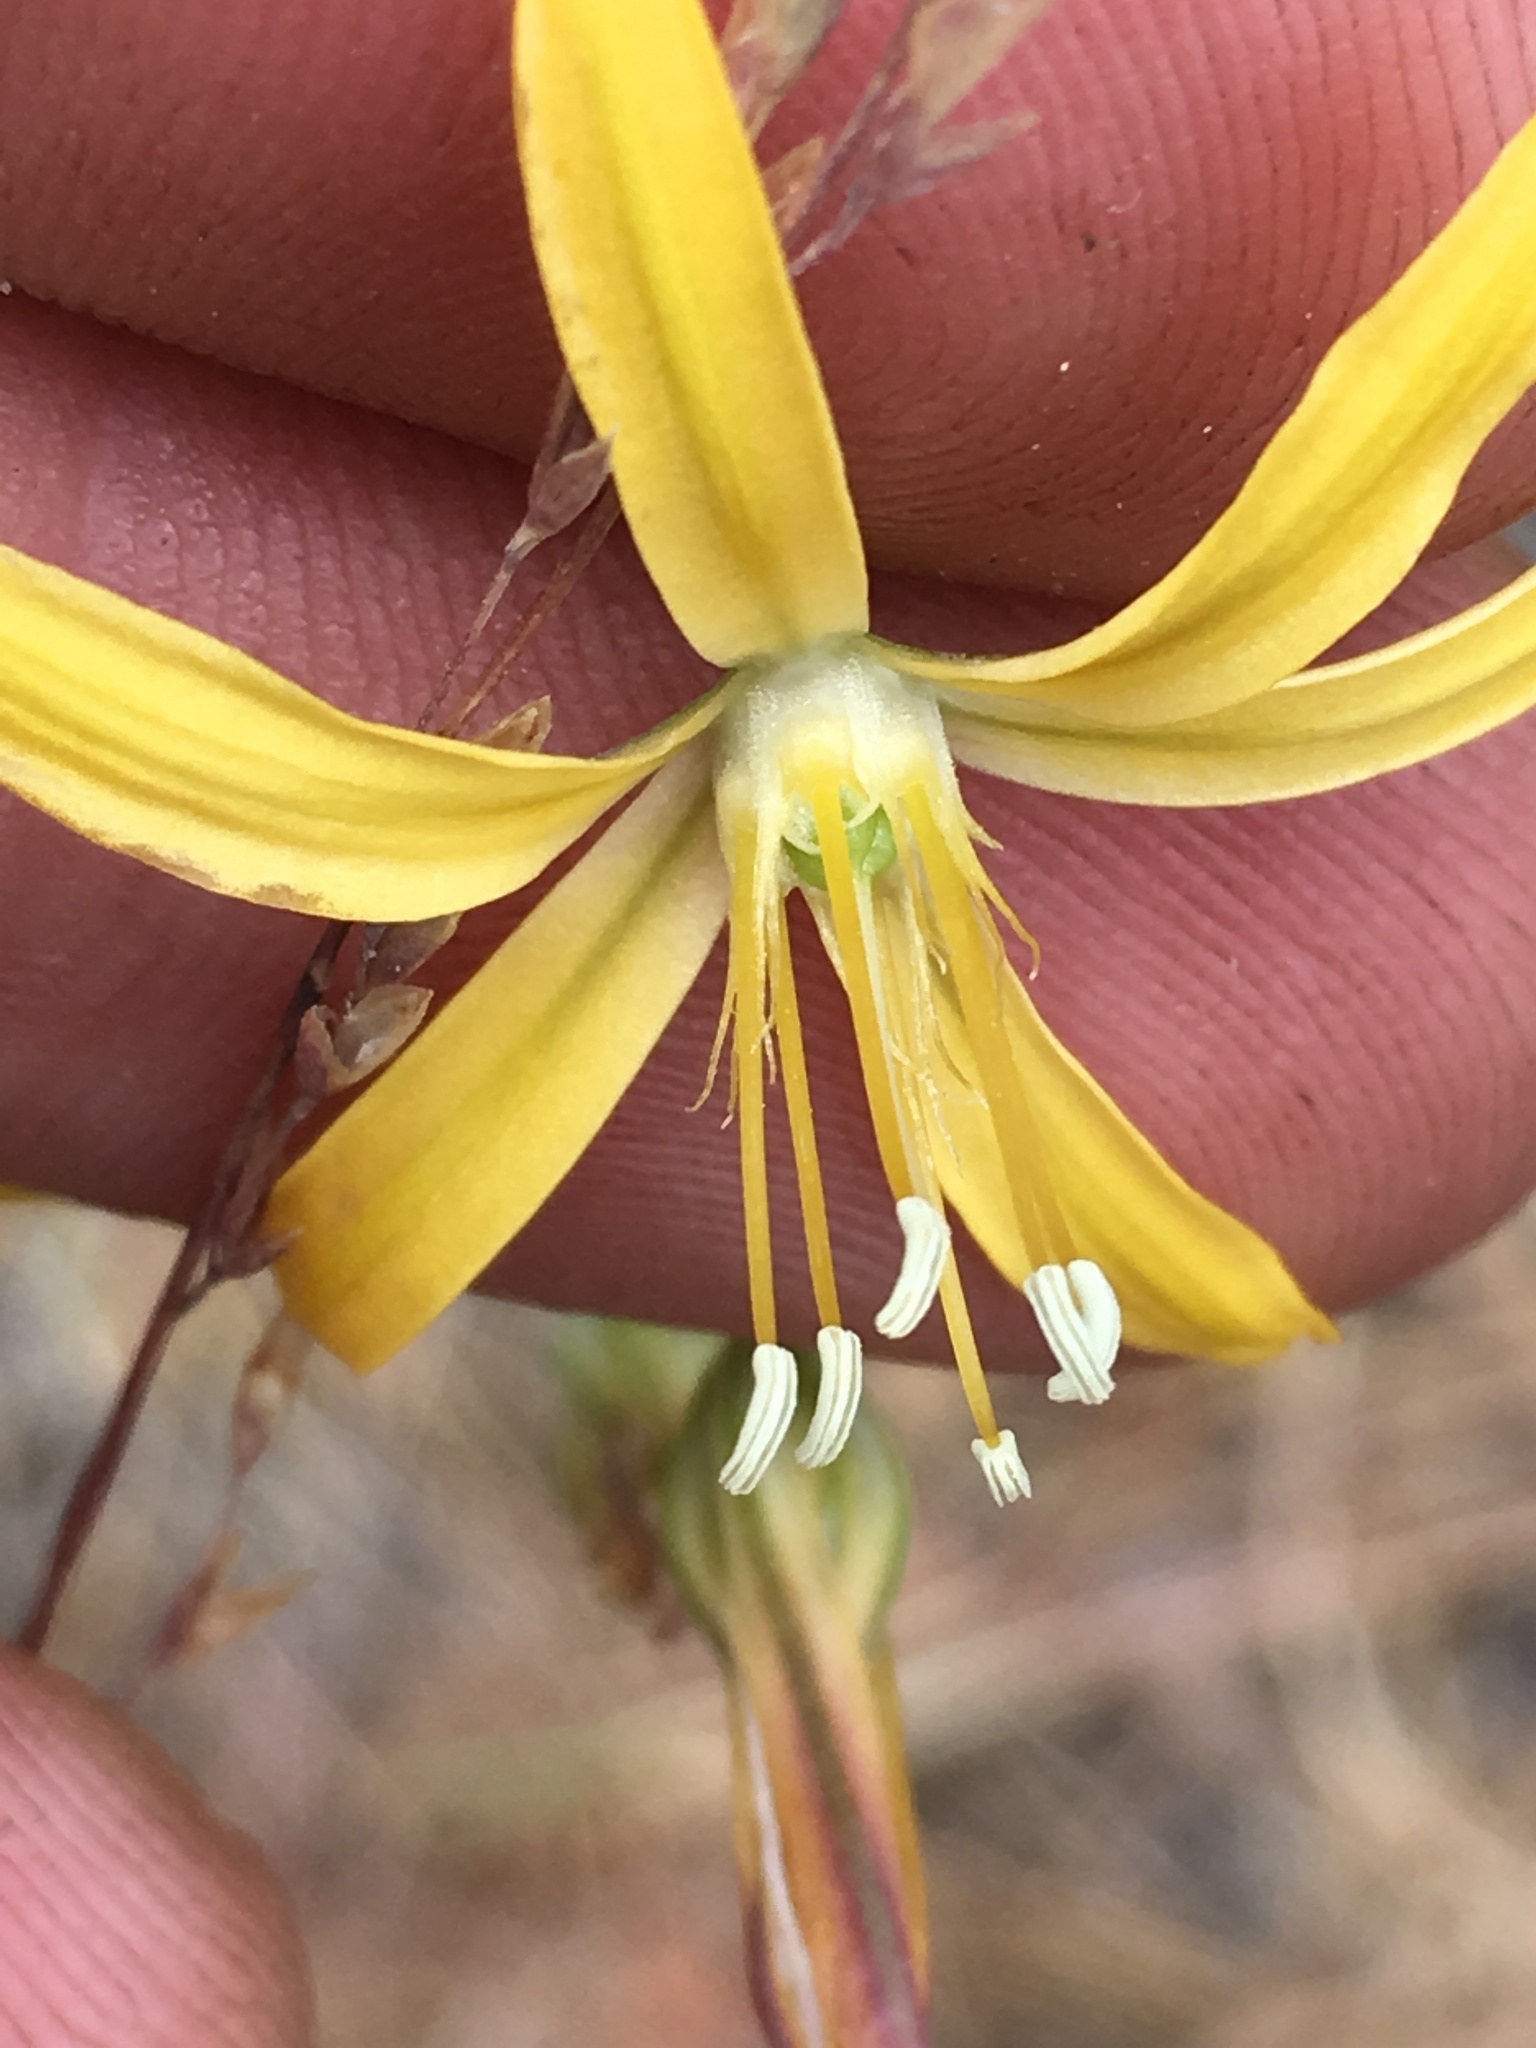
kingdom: Plantae
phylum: Tracheophyta
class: Liliopsida
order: Asparagales
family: Asparagaceae
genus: Bloomeria
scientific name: Bloomeria crocea
